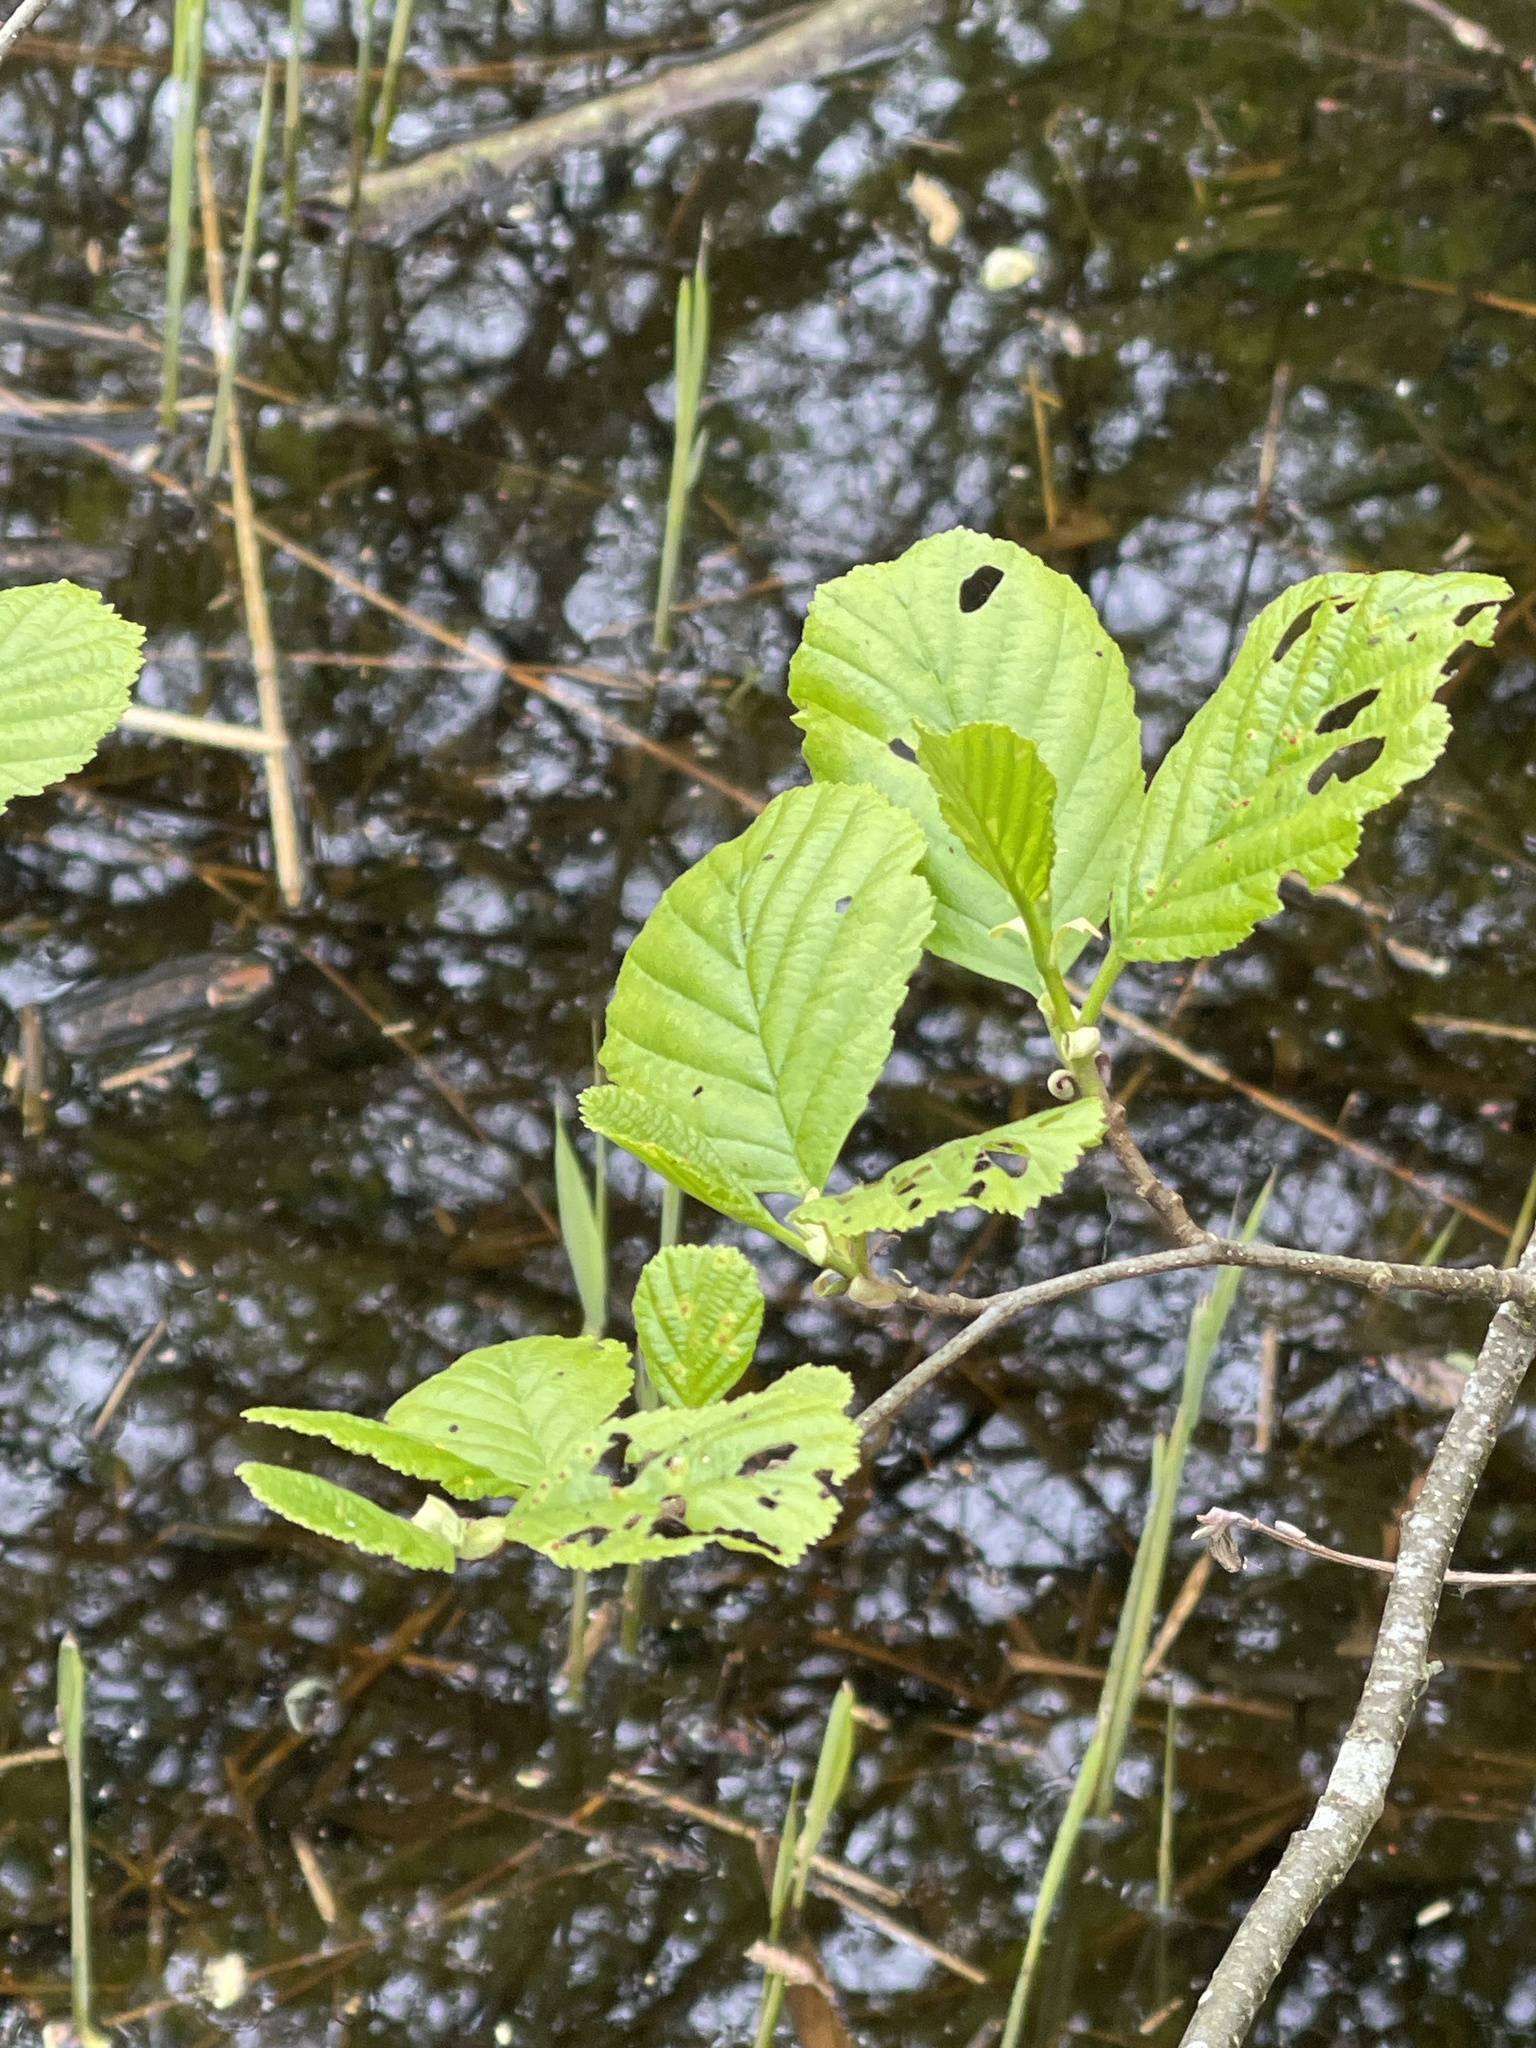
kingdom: Plantae
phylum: Tracheophyta
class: Magnoliopsida
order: Fagales
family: Betulaceae
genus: Alnus
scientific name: Alnus glutinosa
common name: Black alder
